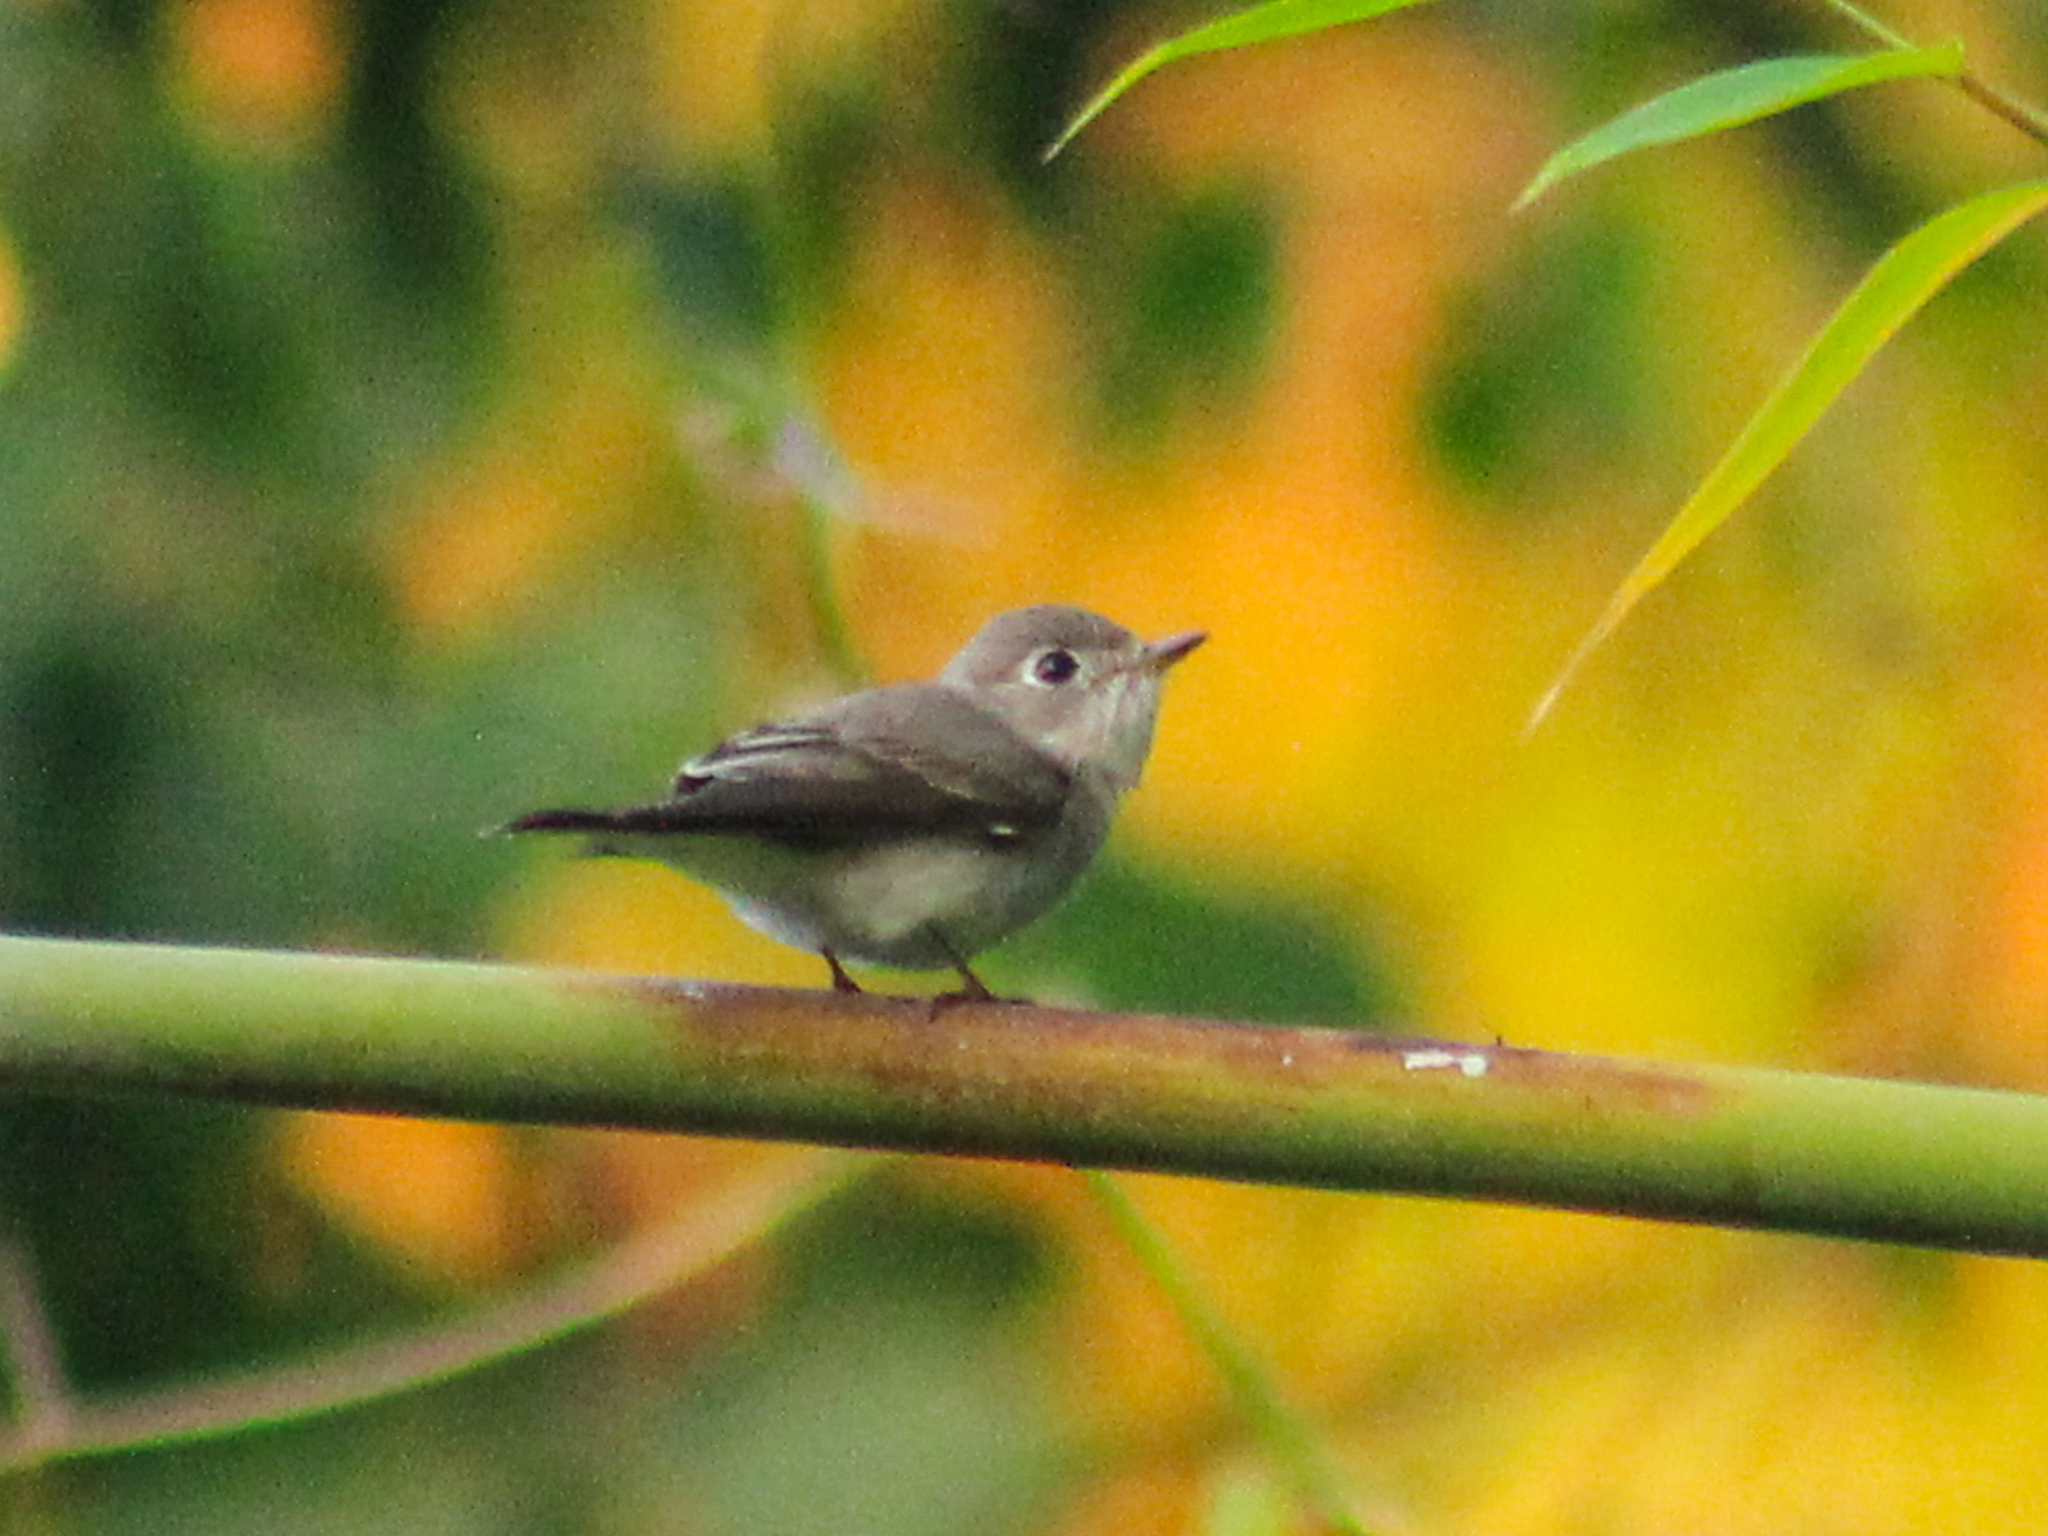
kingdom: Animalia
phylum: Chordata
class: Aves
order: Passeriformes
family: Muscicapidae
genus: Muscicapa
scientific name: Muscicapa latirostris
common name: Asian brown flycatcher
